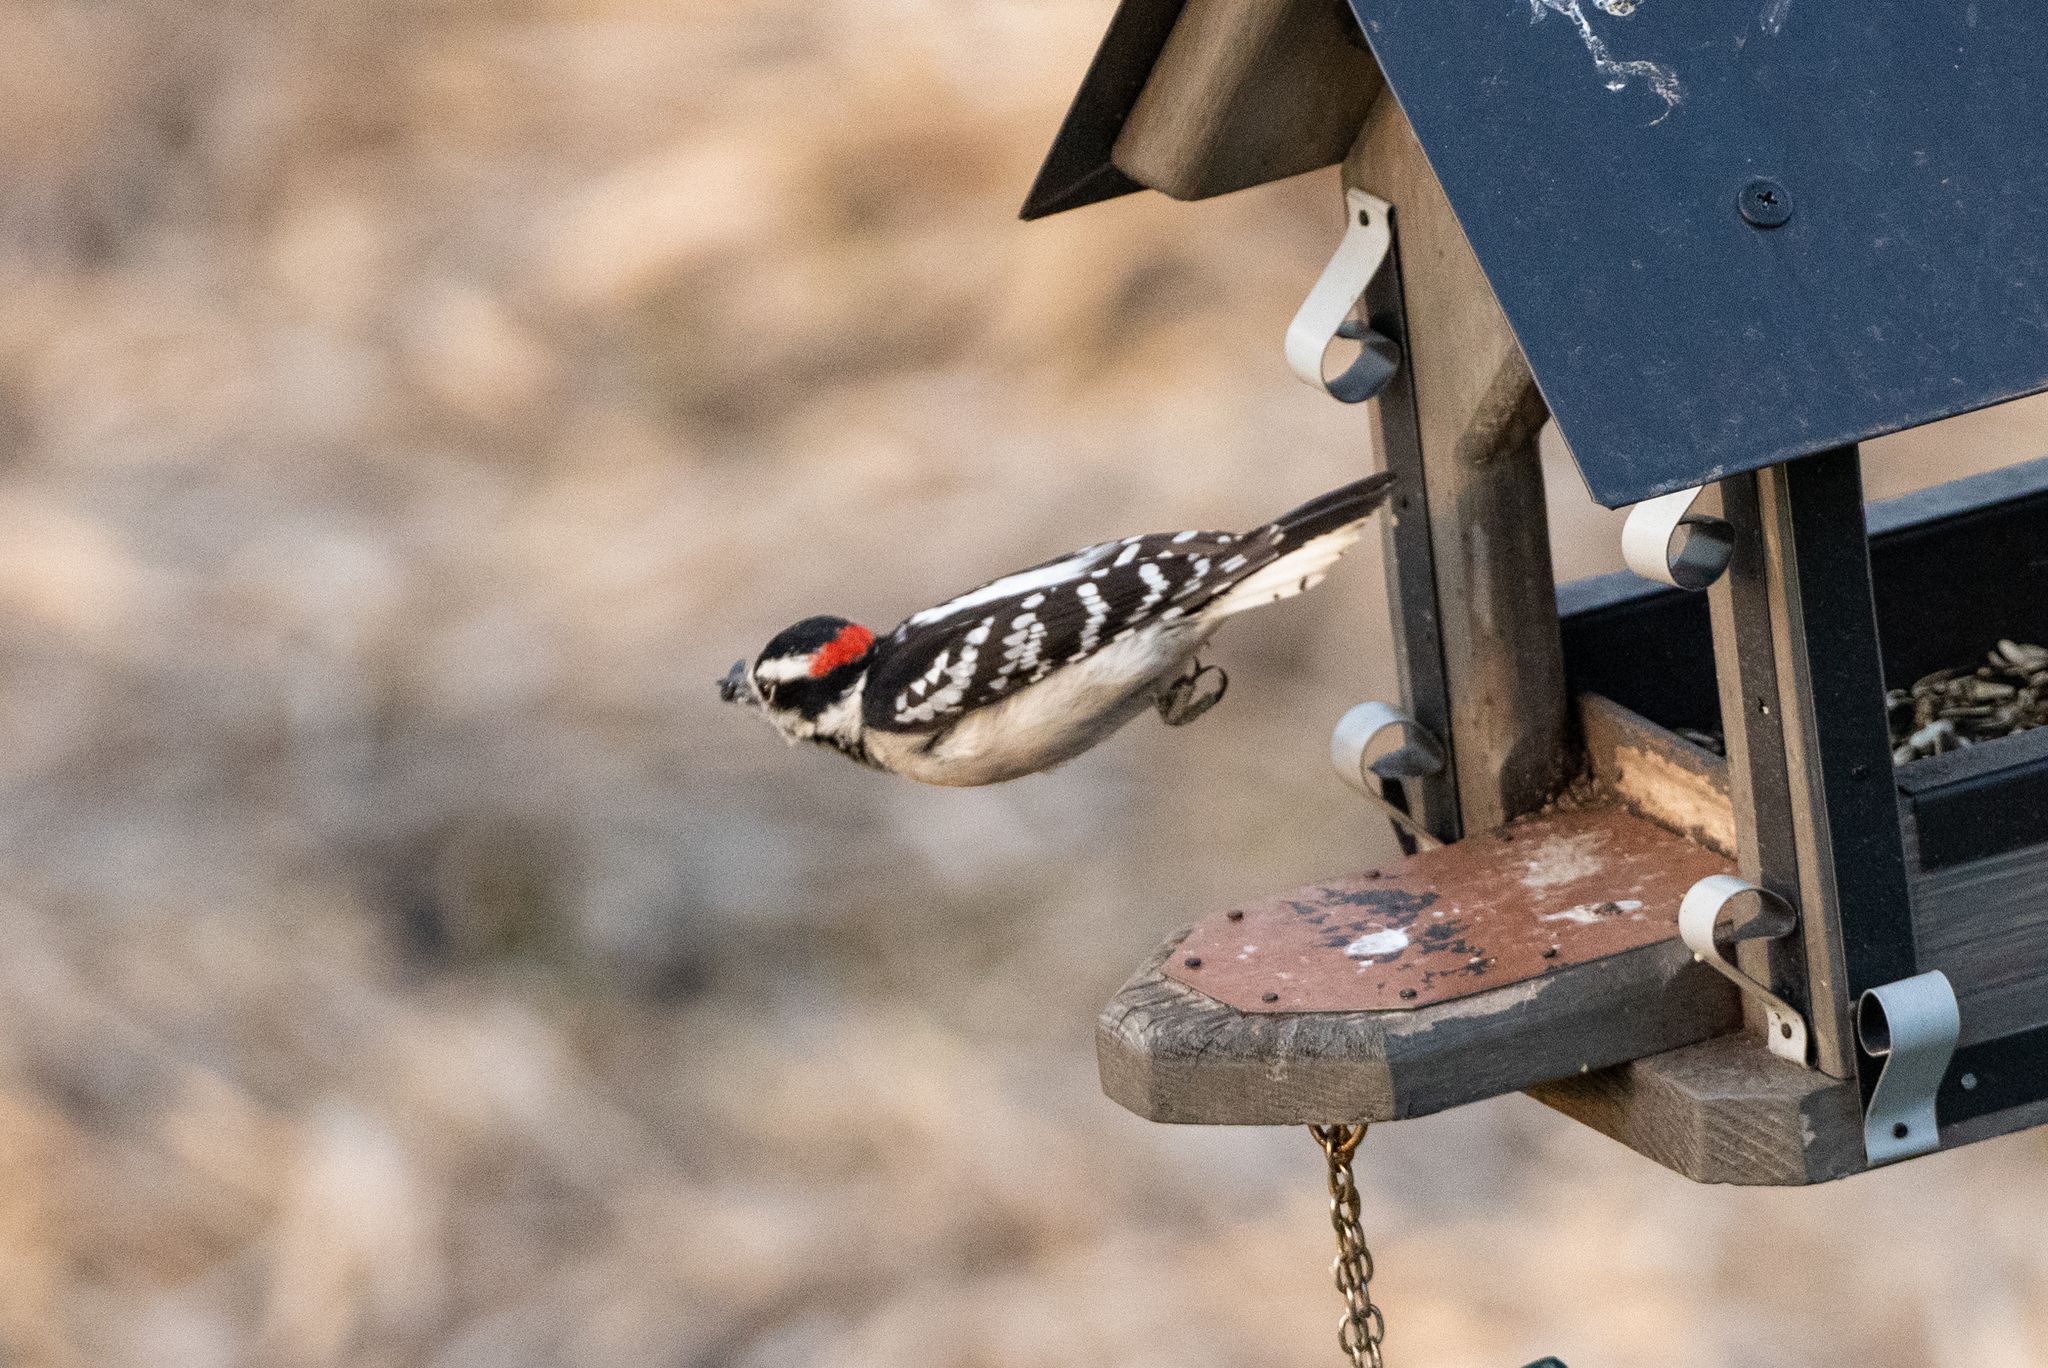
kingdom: Animalia
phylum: Chordata
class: Aves
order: Piciformes
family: Picidae
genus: Dryobates
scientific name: Dryobates pubescens
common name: Downy woodpecker
